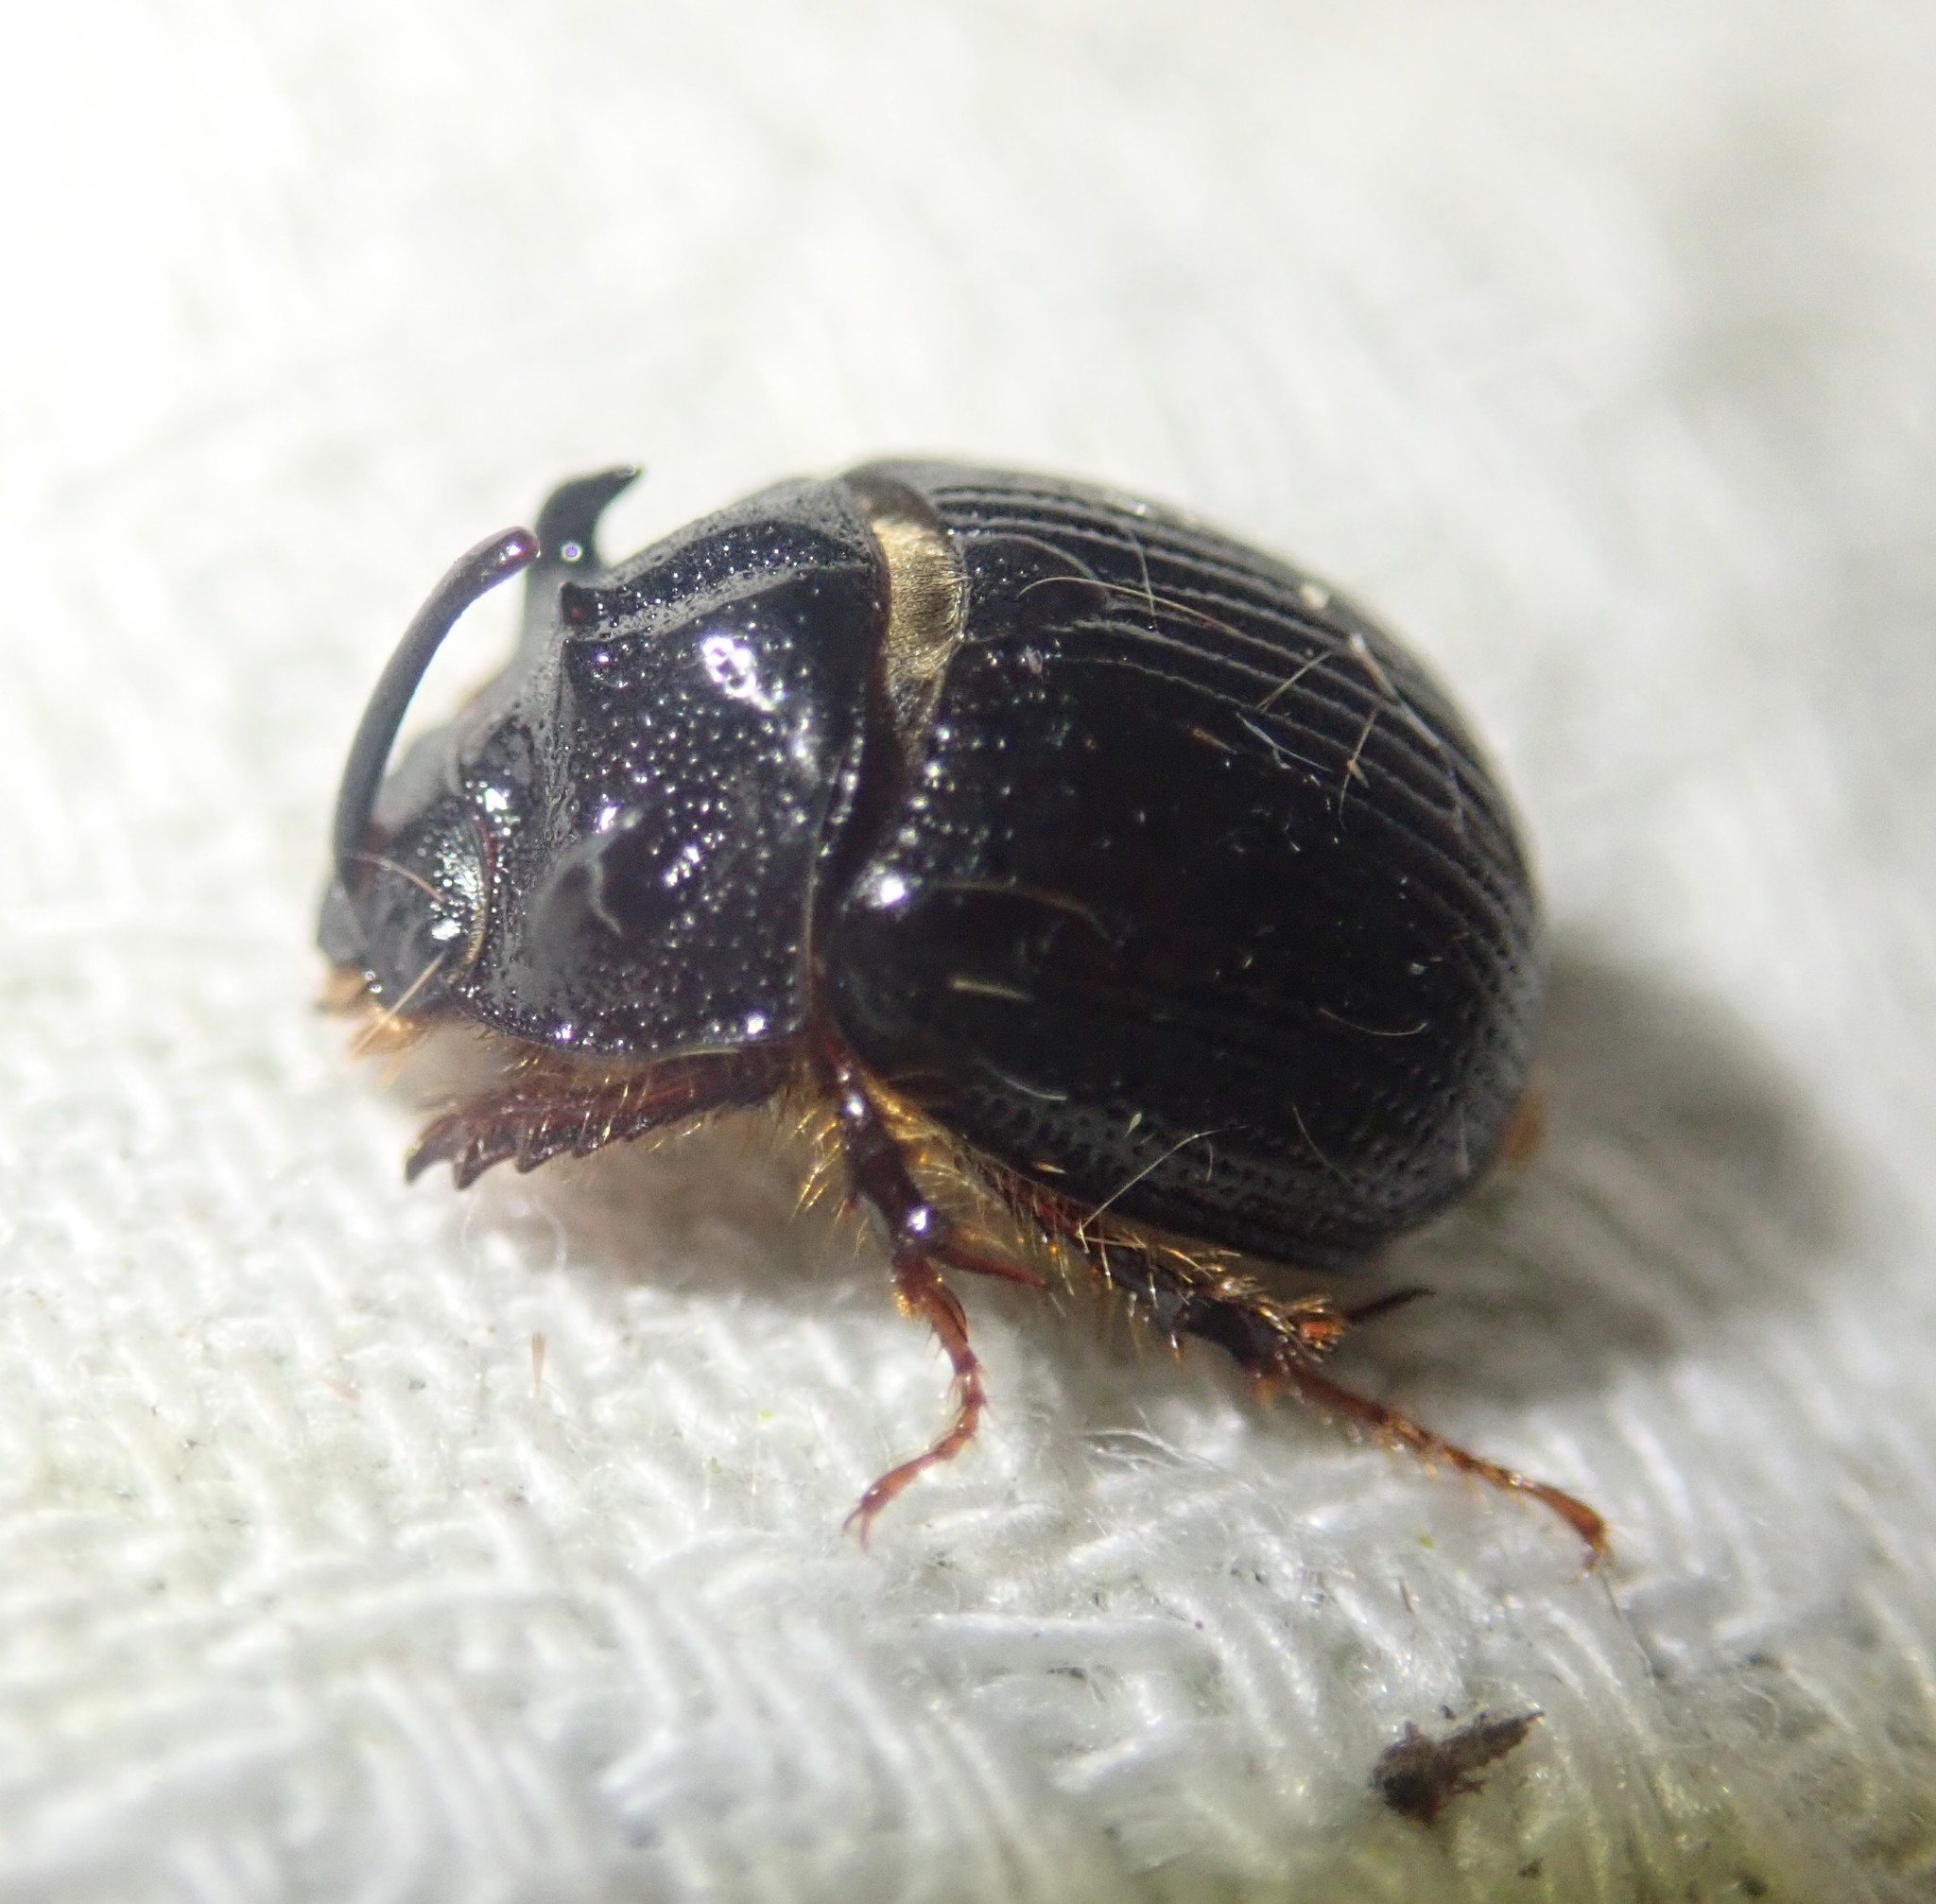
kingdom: Animalia
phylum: Arthropoda
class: Insecta
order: Coleoptera
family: Geotrupidae
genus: Odonteus
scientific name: Odonteus armiger
